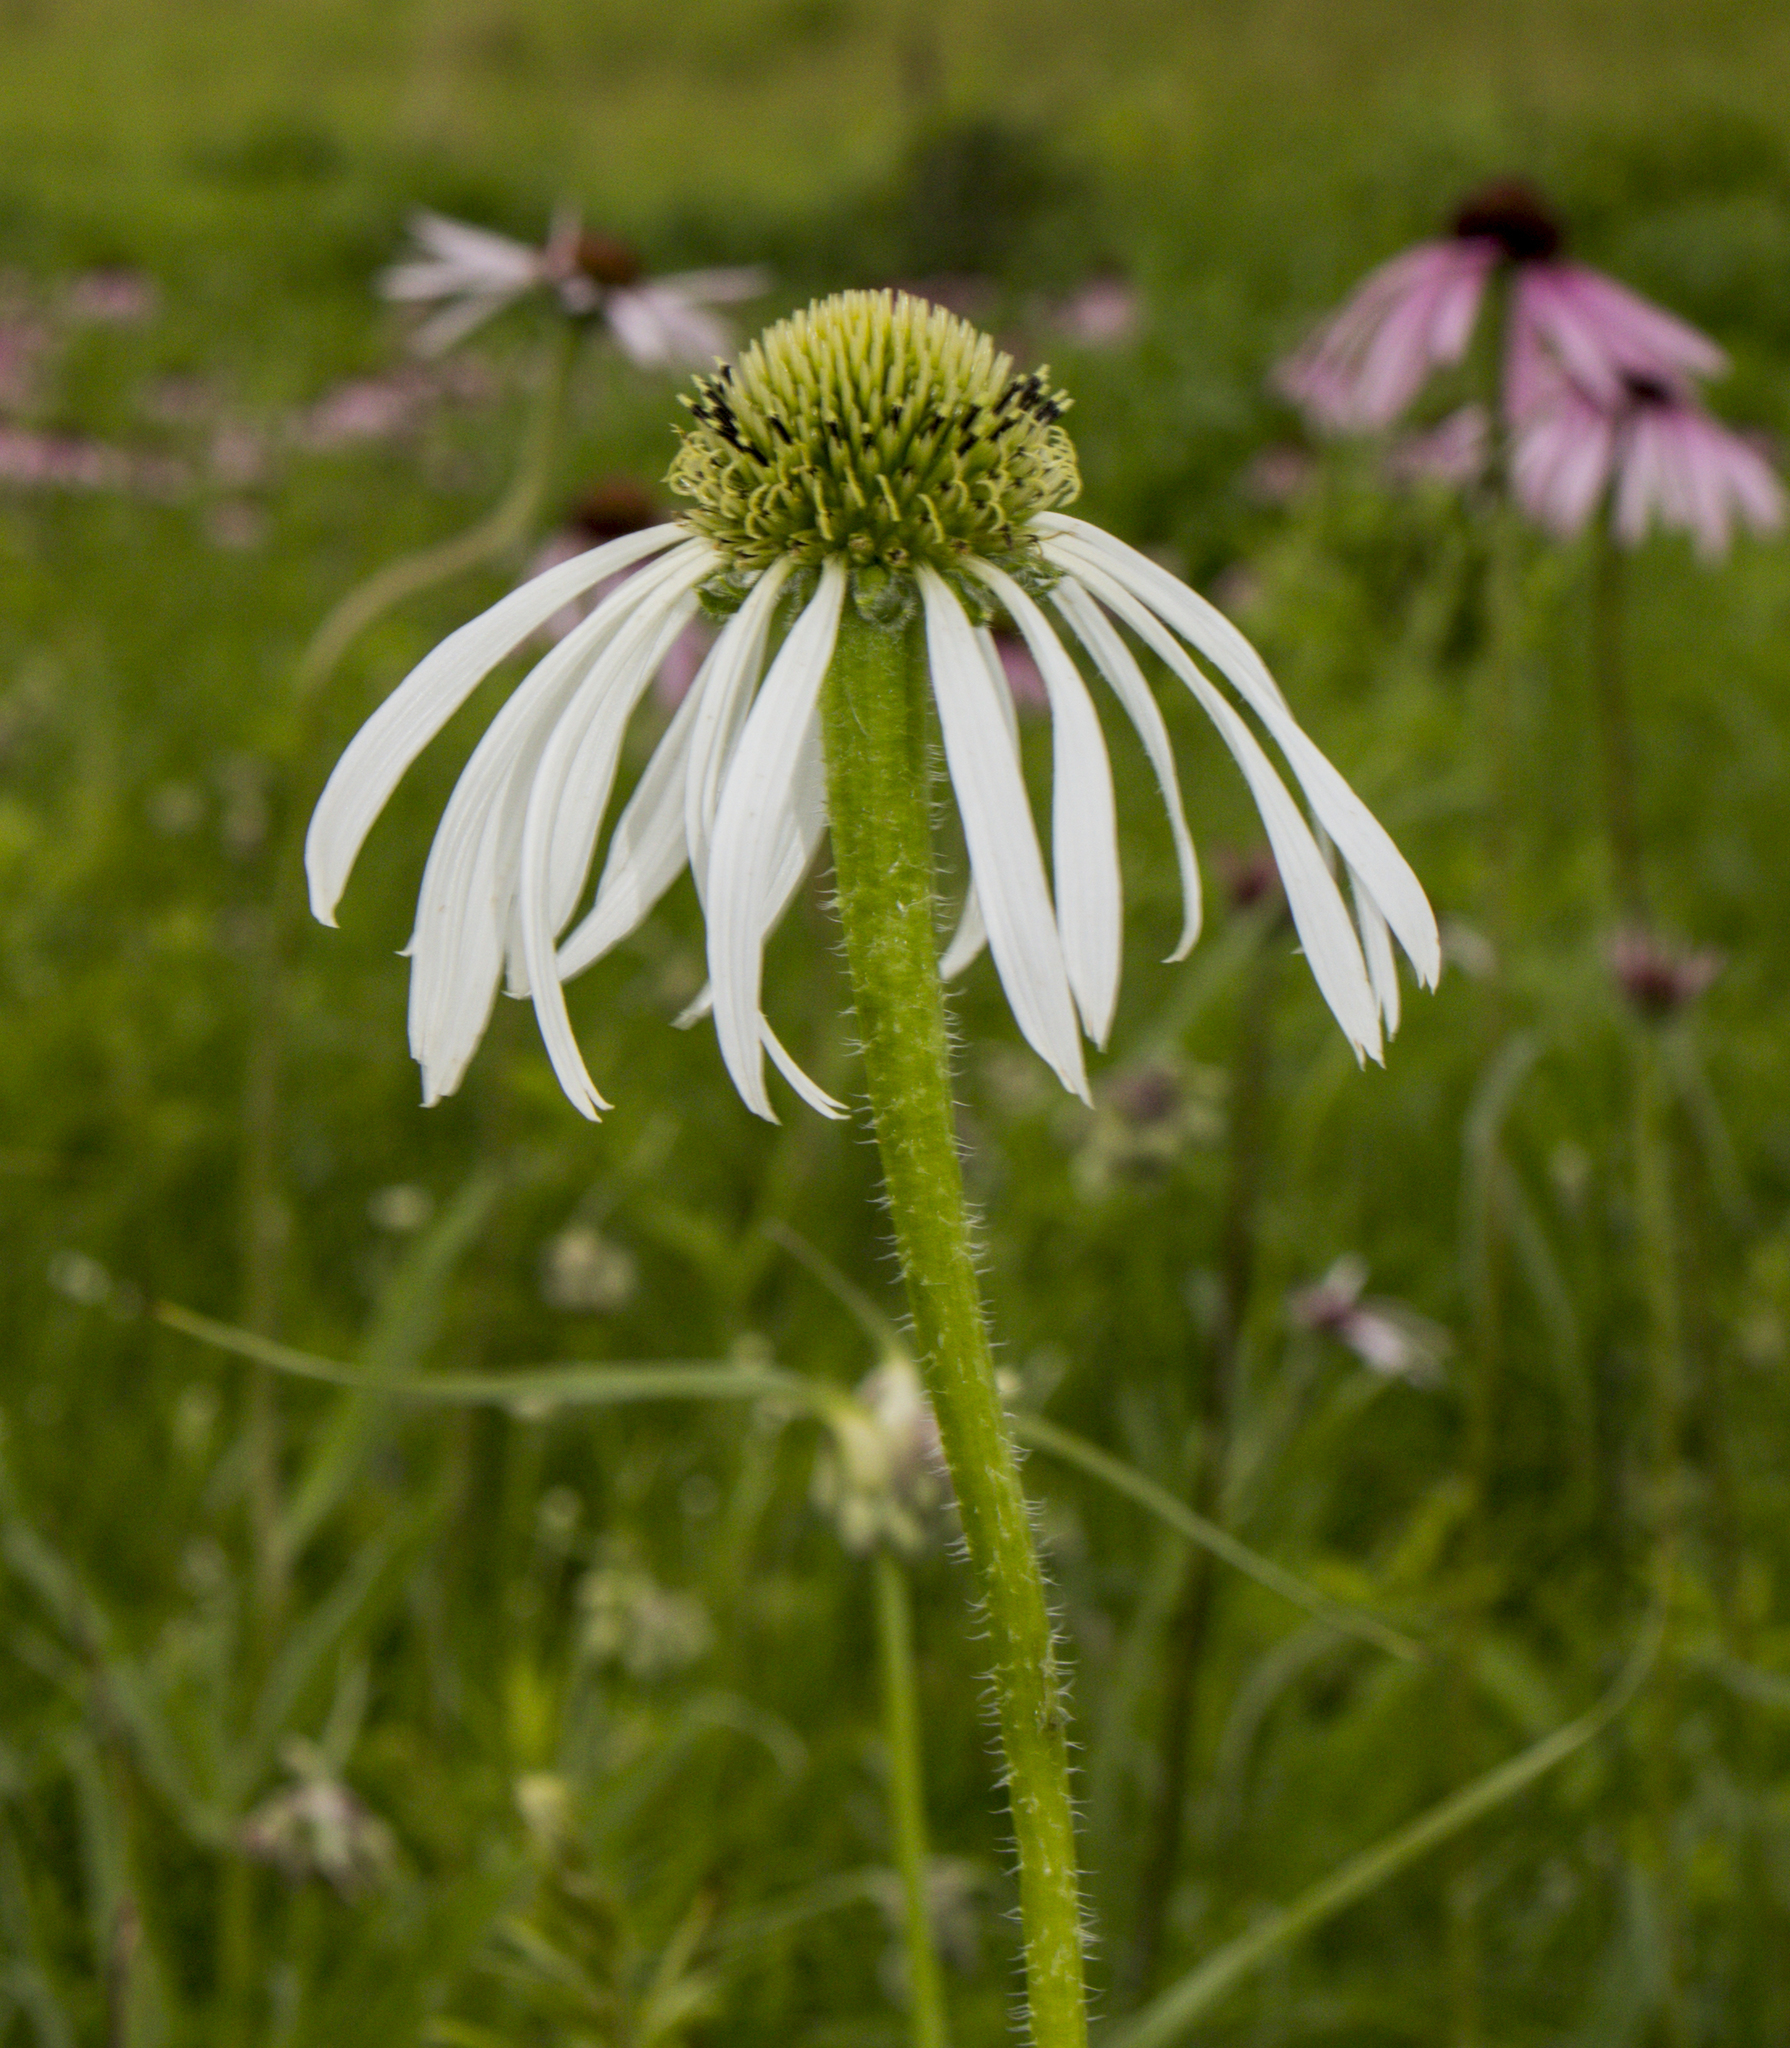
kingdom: Plantae
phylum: Tracheophyta
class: Magnoliopsida
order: Asterales
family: Asteraceae
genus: Echinacea
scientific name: Echinacea pallida
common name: Pale echinacea
